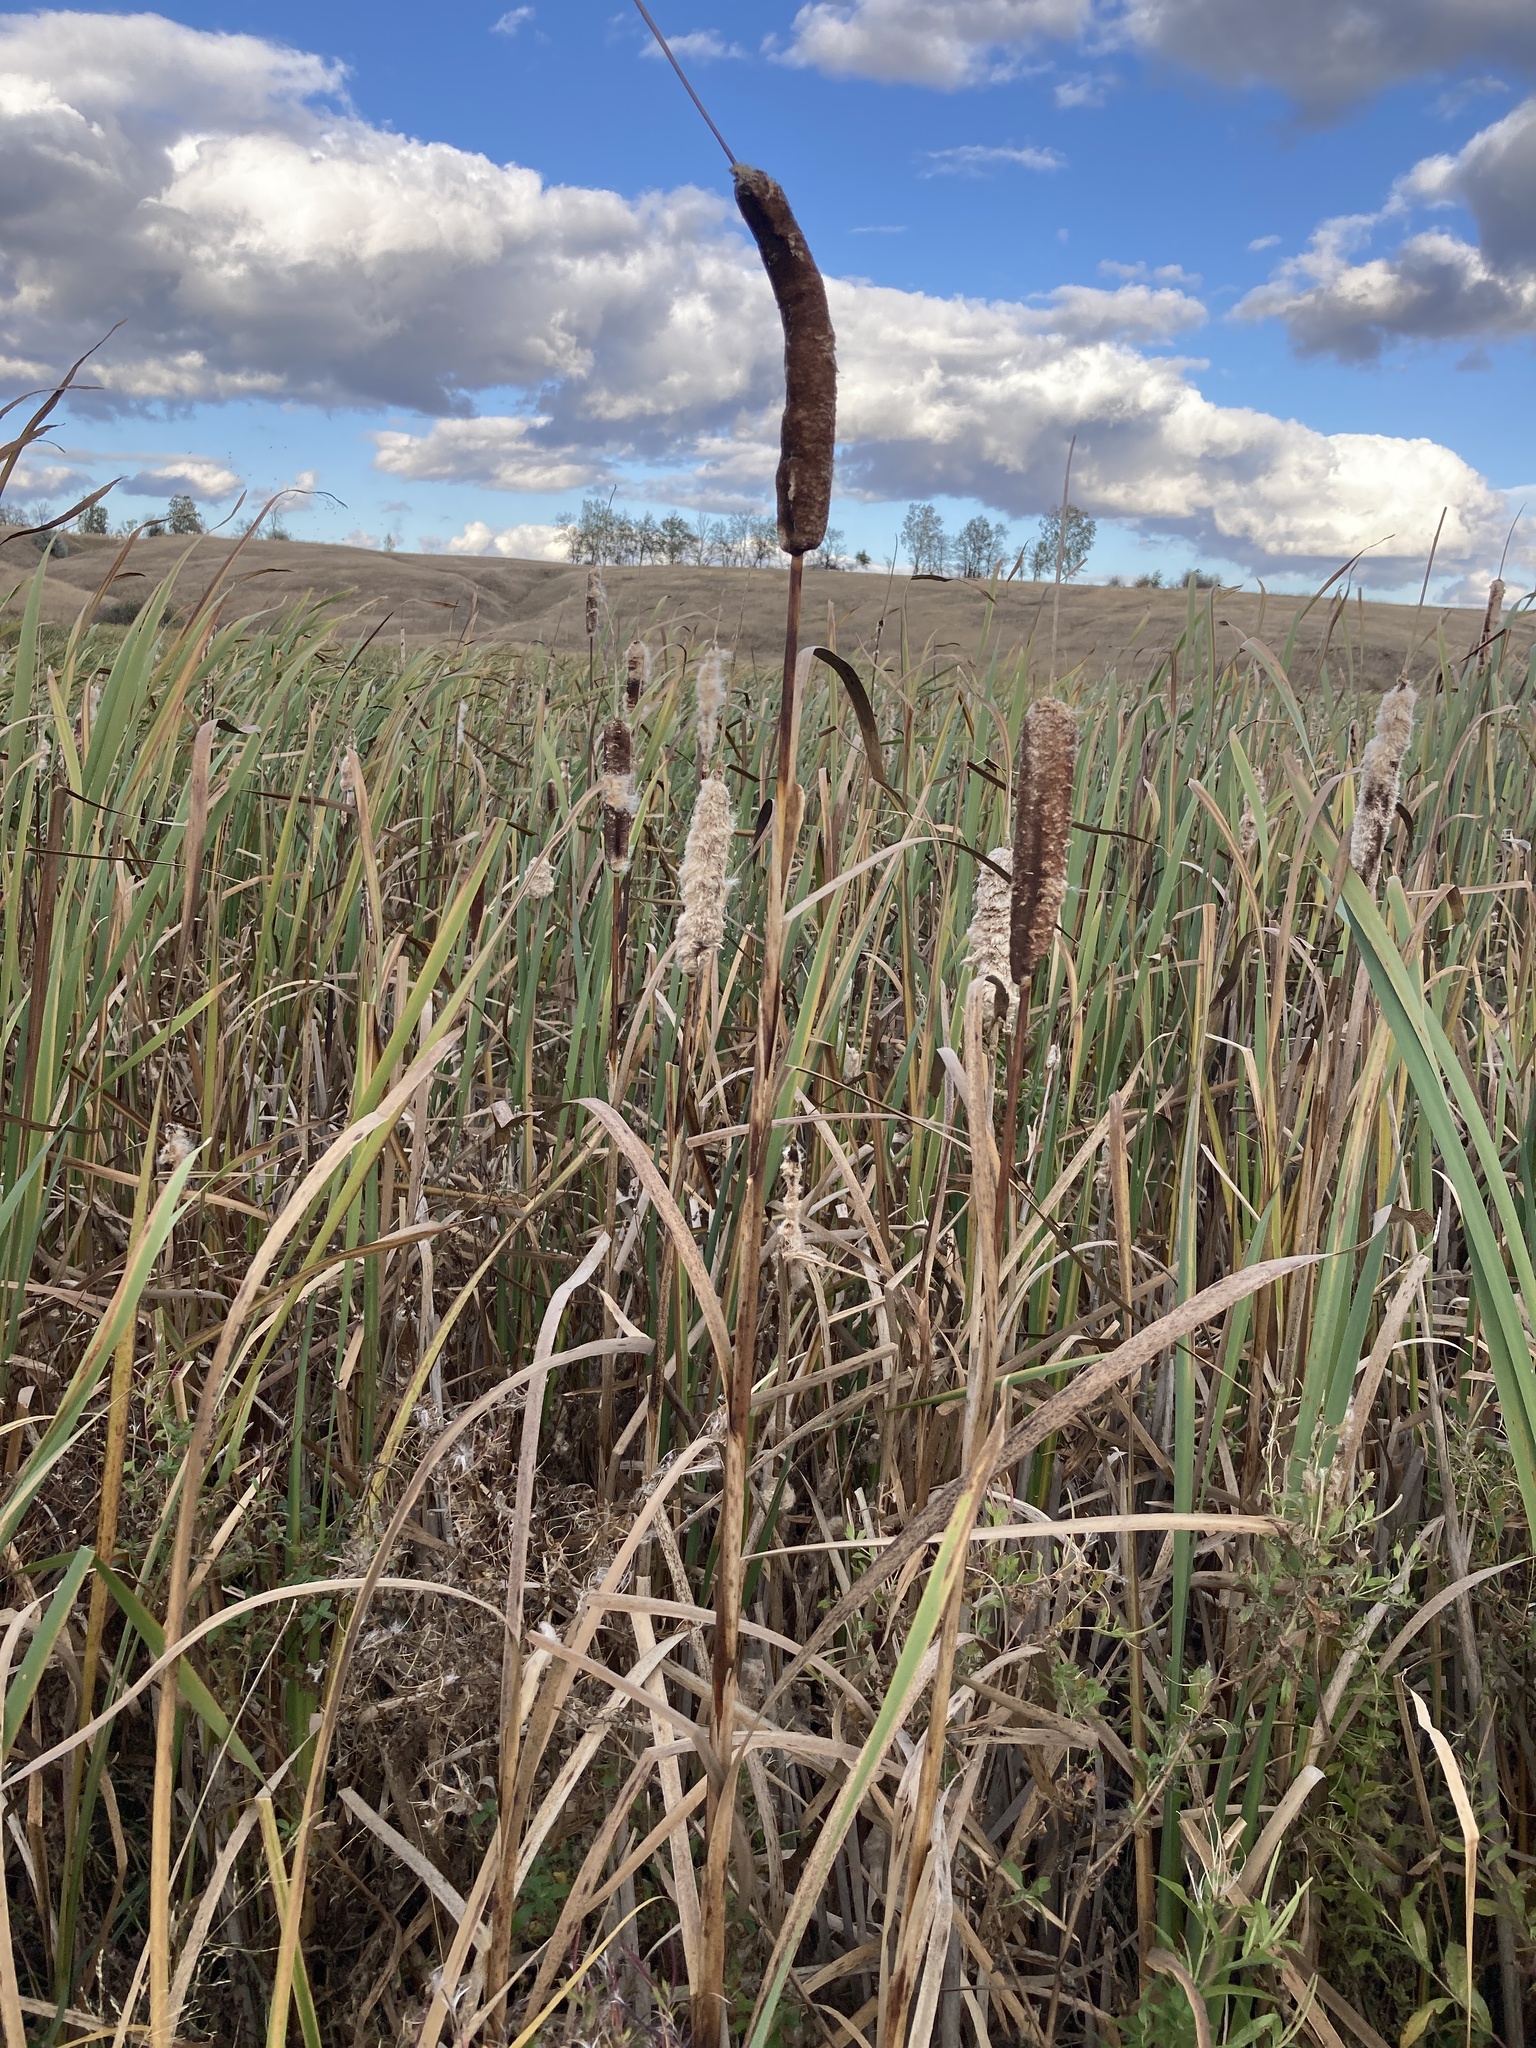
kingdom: Plantae
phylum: Tracheophyta
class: Liliopsida
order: Poales
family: Typhaceae
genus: Typha
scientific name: Typha latifolia
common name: Broadleaf cattail
